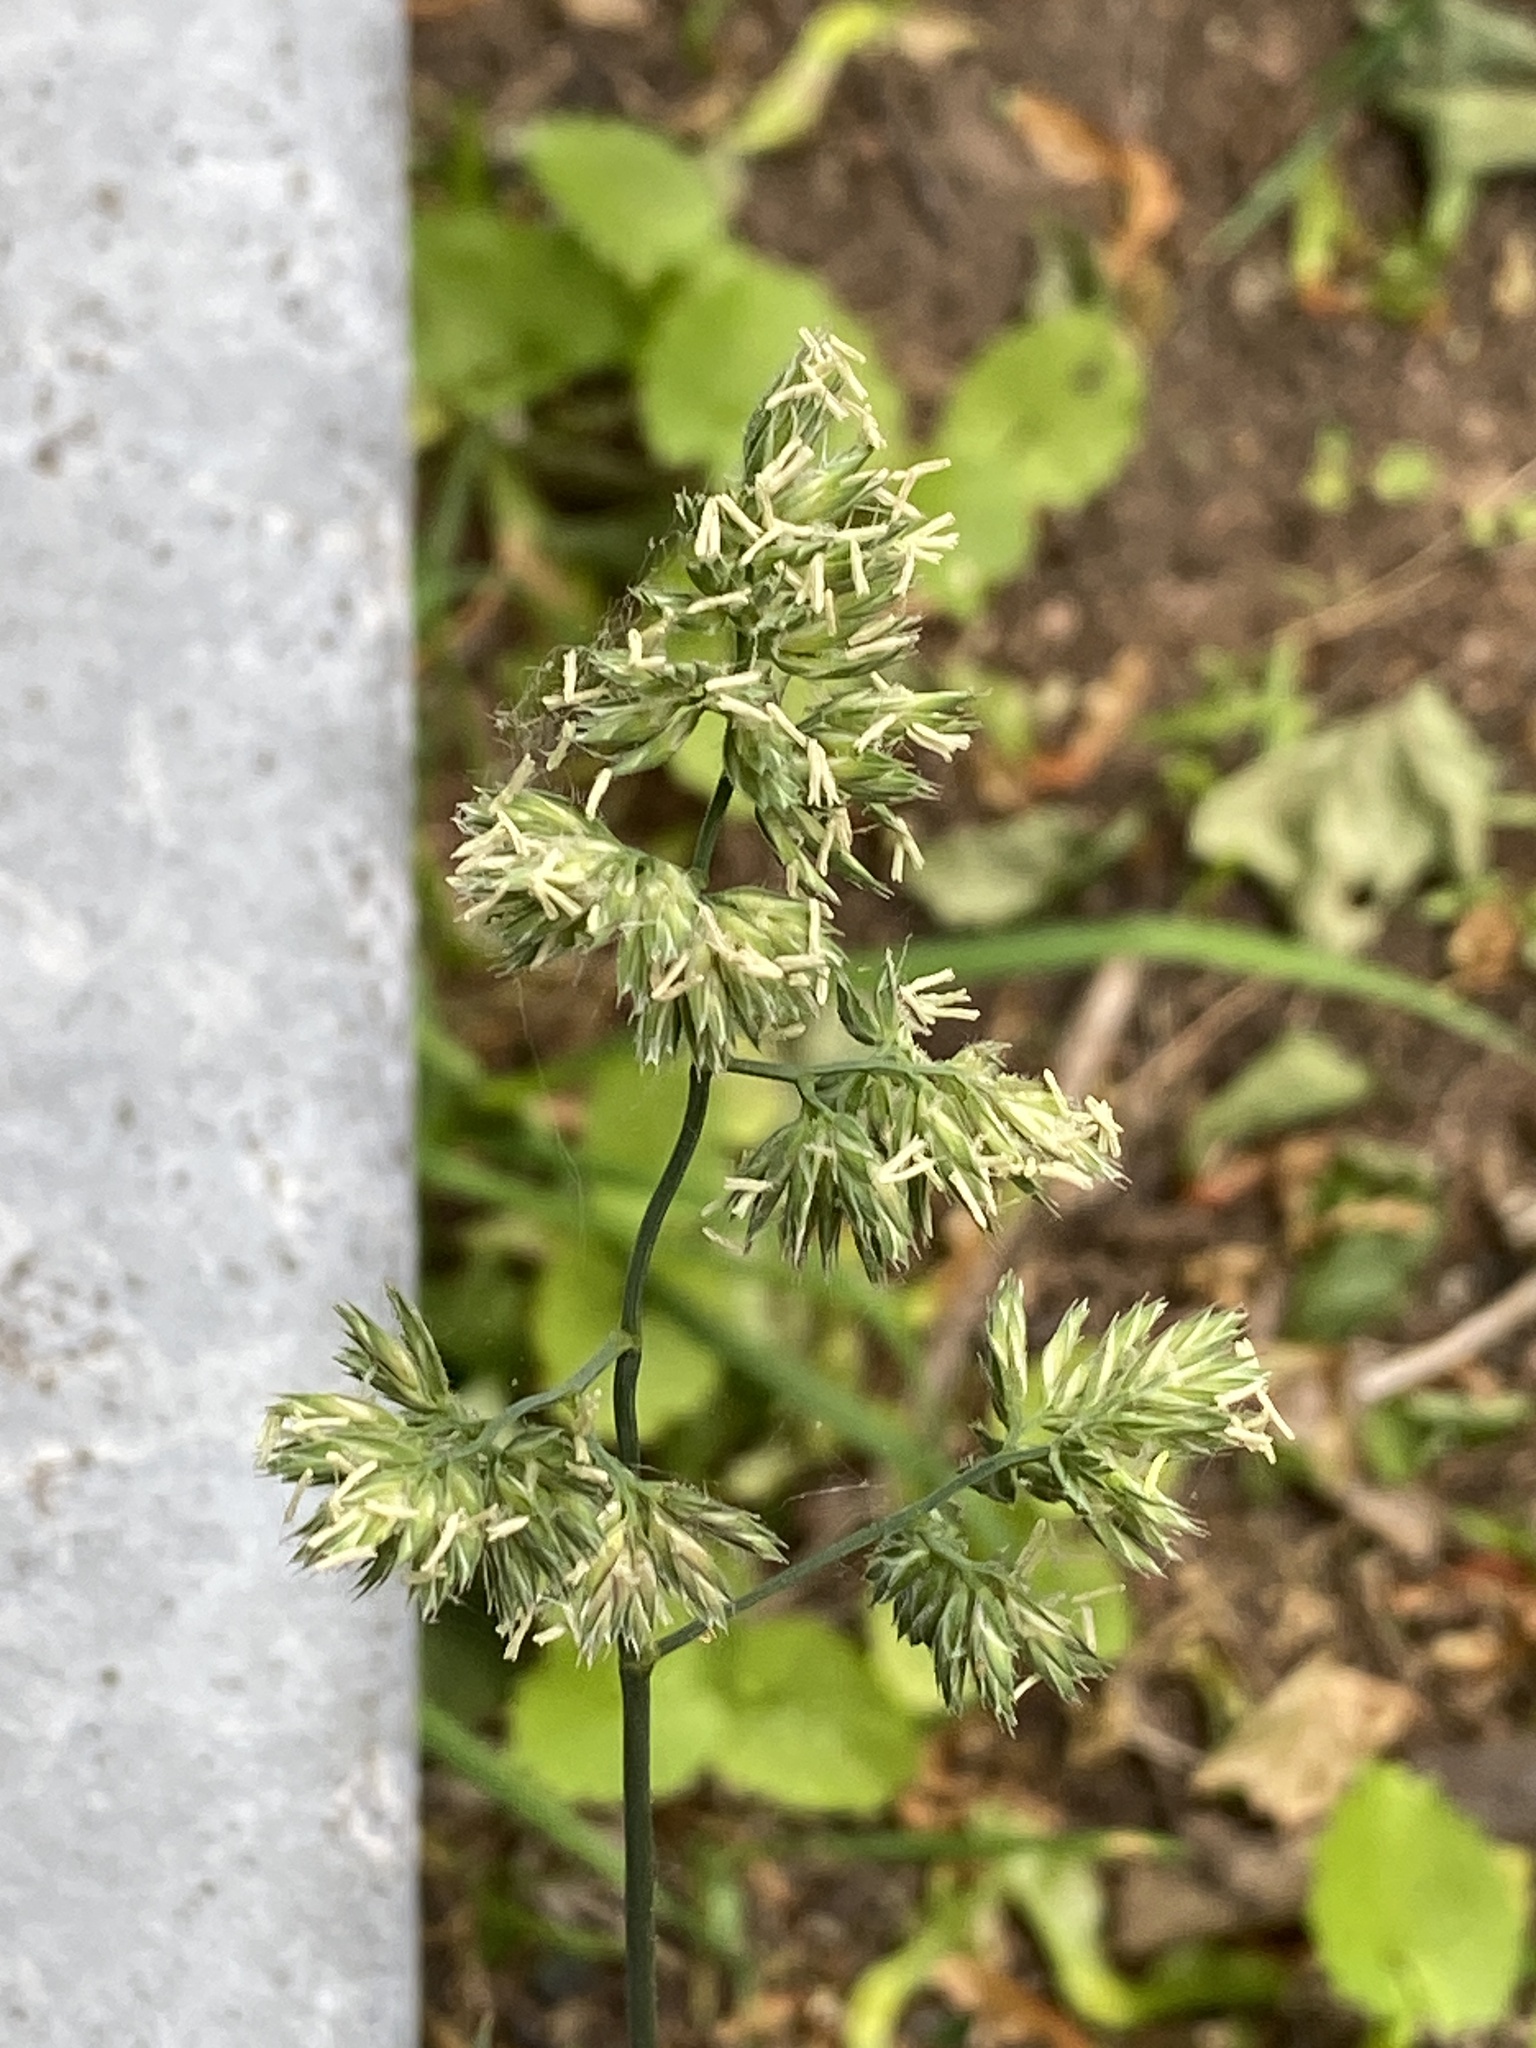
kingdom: Plantae
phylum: Tracheophyta
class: Liliopsida
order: Poales
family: Poaceae
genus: Dactylis
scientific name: Dactylis glomerata
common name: Orchardgrass
